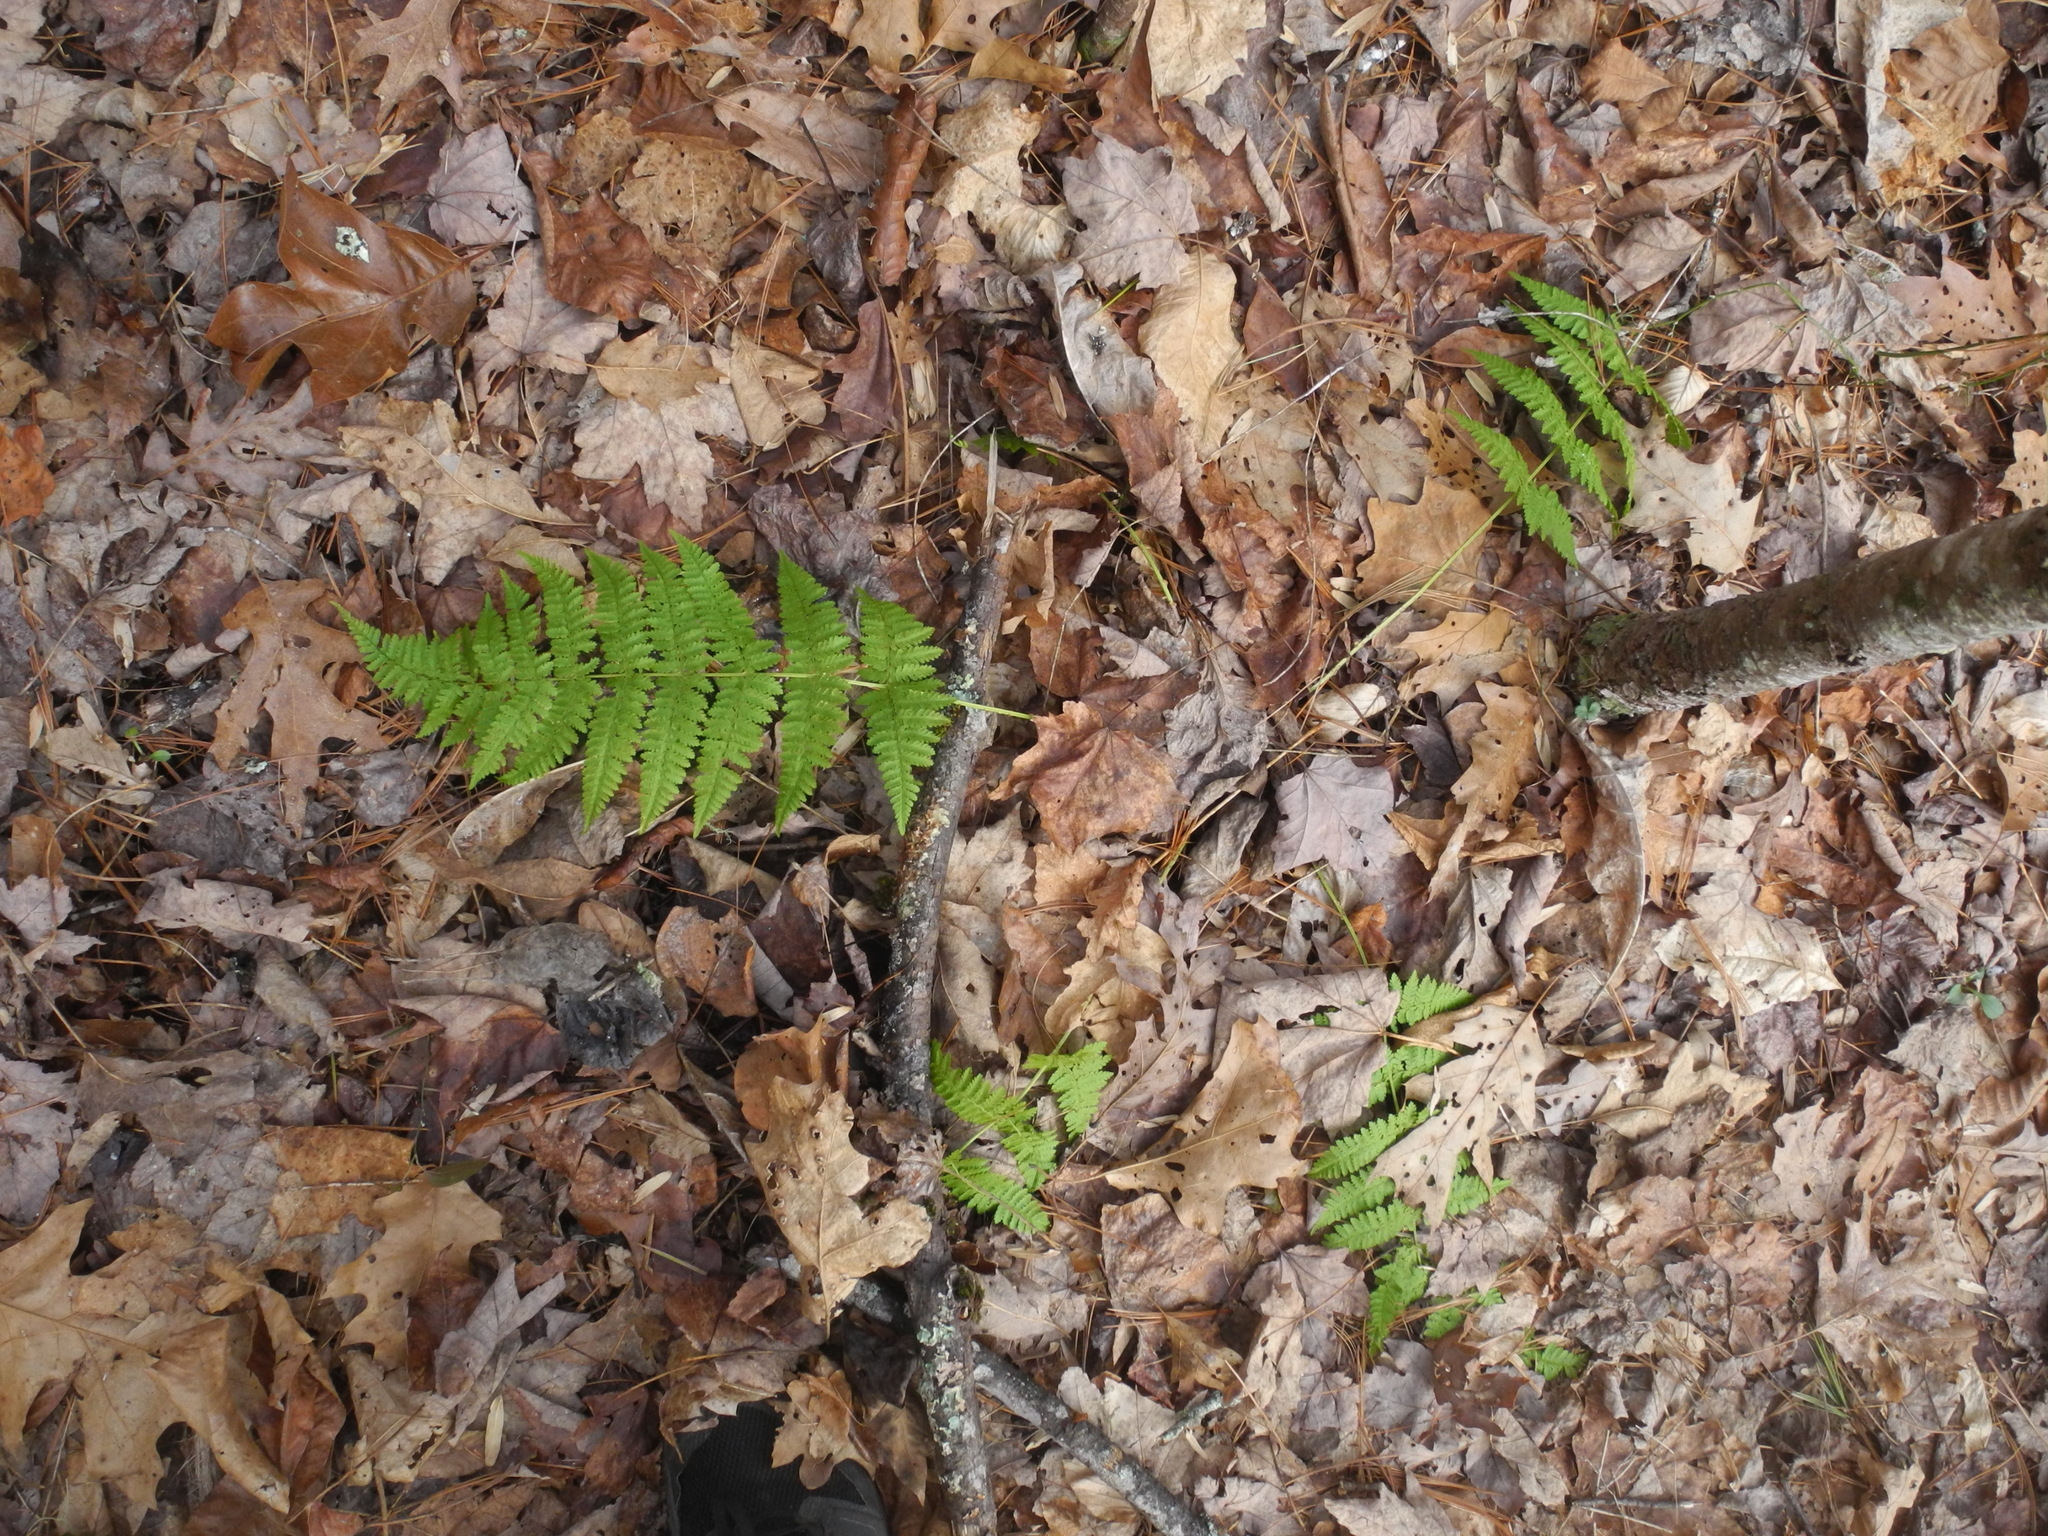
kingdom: Plantae
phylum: Tracheophyta
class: Polypodiopsida
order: Polypodiales
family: Dryopteridaceae
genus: Dryopteris
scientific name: Dryopteris intermedia
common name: Evergreen wood fern
